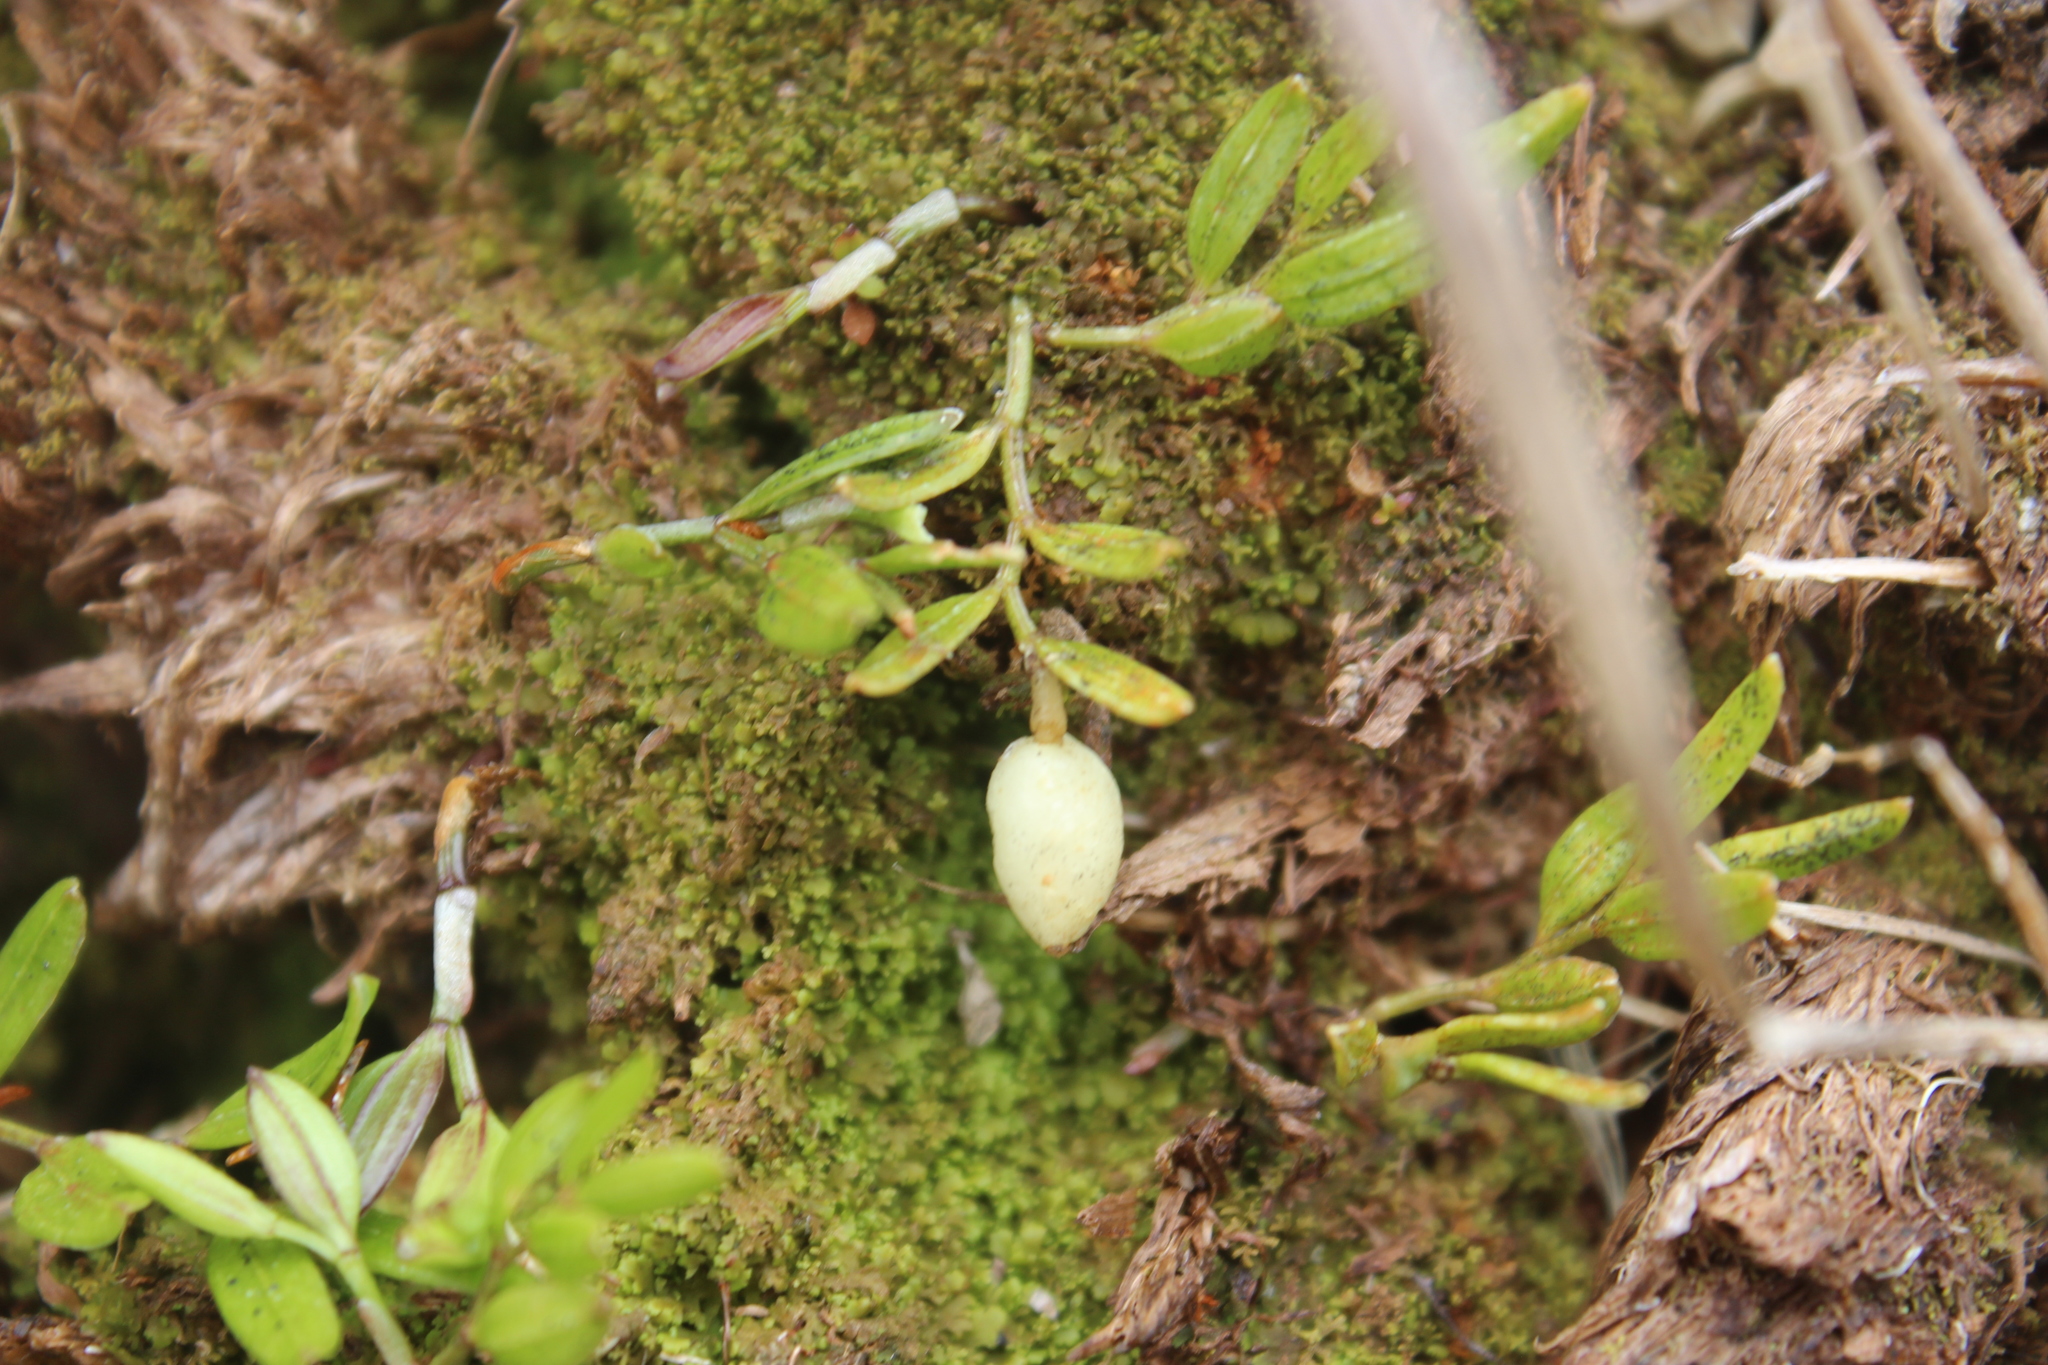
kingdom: Plantae
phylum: Tracheophyta
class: Liliopsida
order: Liliales
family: Alstroemeriaceae
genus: Luzuriaga
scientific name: Luzuriaga parviflora
